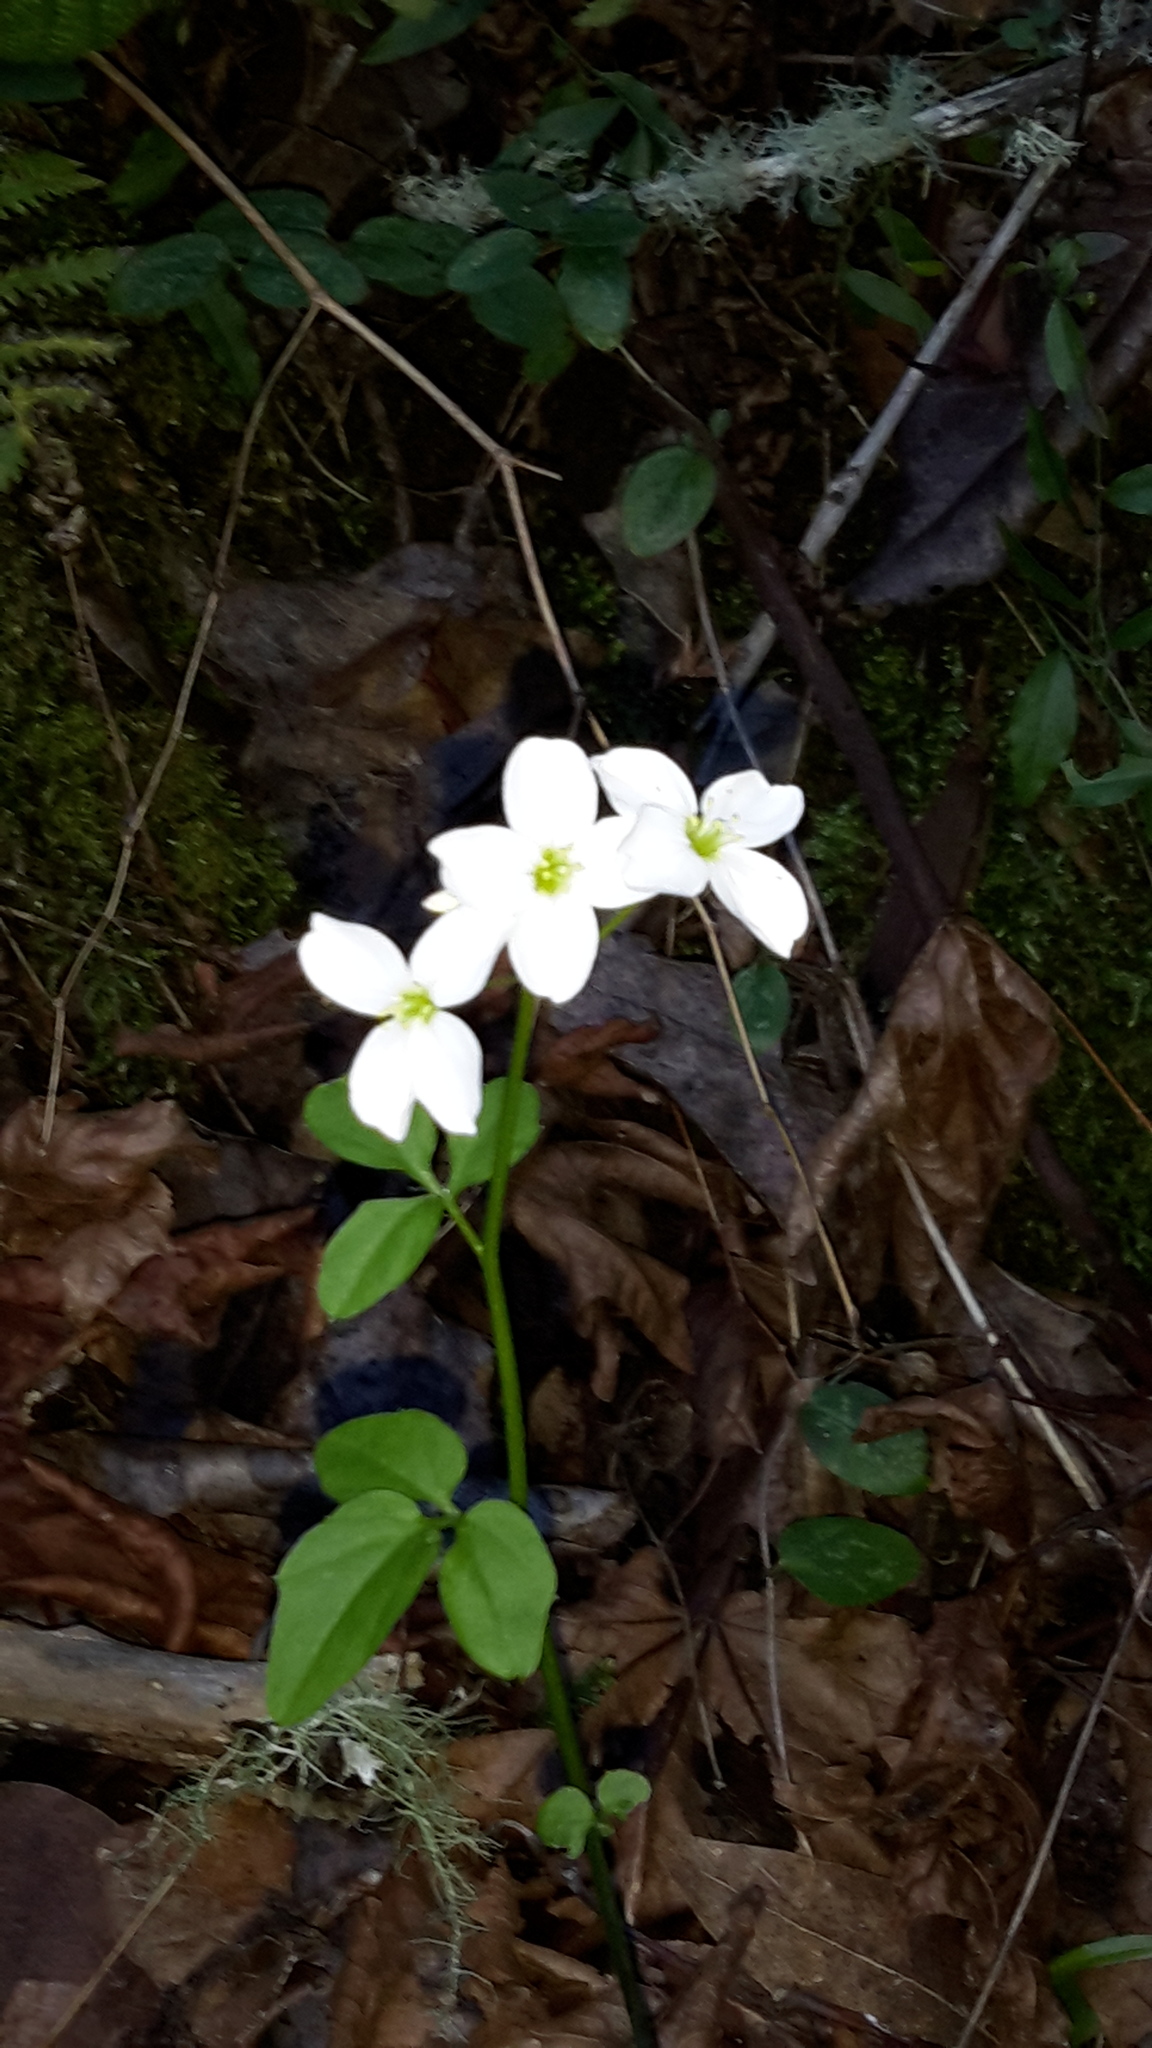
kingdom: Plantae
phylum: Tracheophyta
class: Magnoliopsida
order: Brassicales
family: Brassicaceae
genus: Cardamine
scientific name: Cardamine californica
